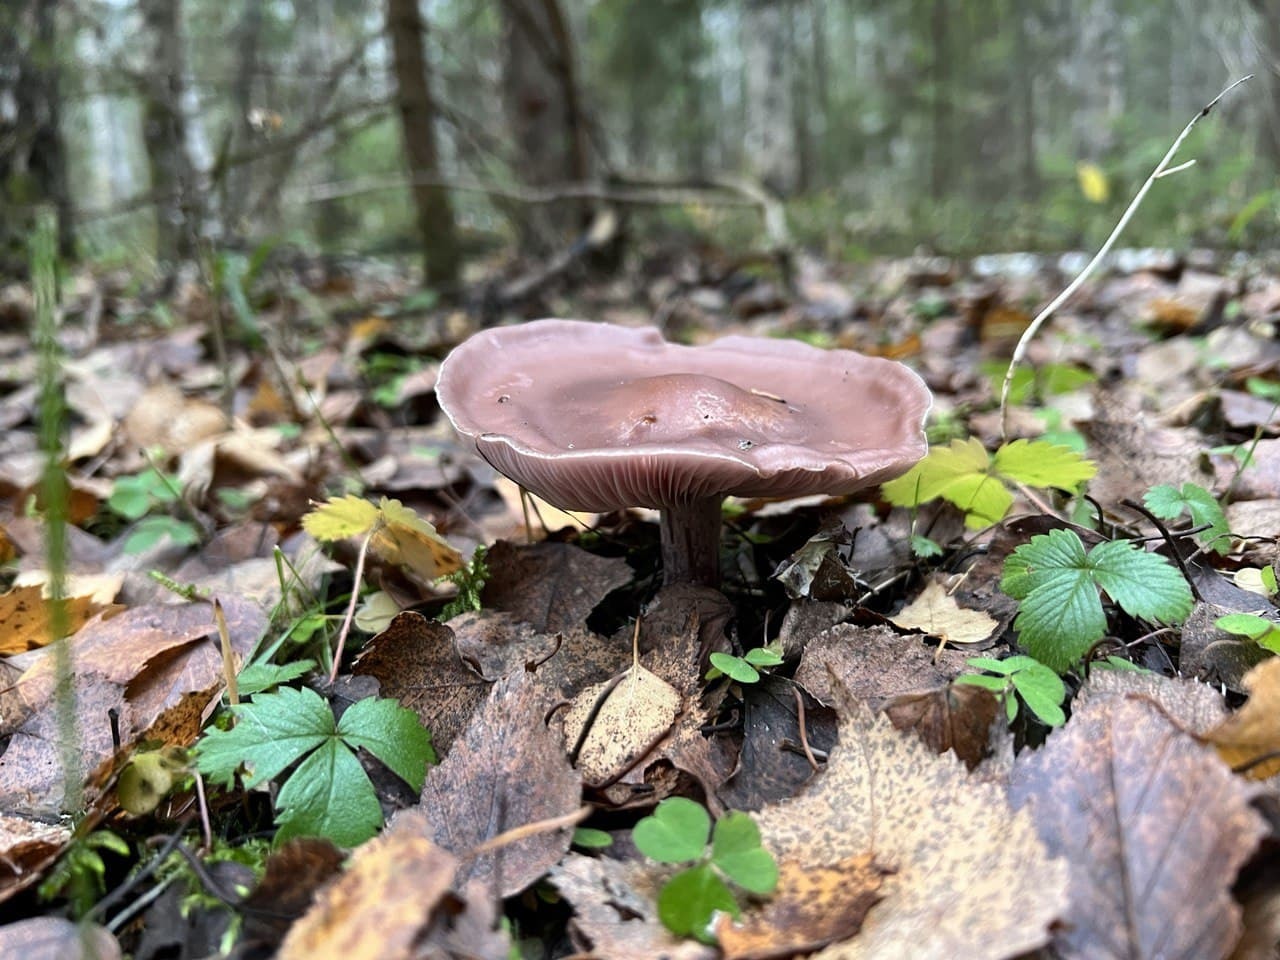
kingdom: Fungi
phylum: Basidiomycota
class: Agaricomycetes
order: Agaricales
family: Tricholomataceae
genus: Collybia
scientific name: Collybia
